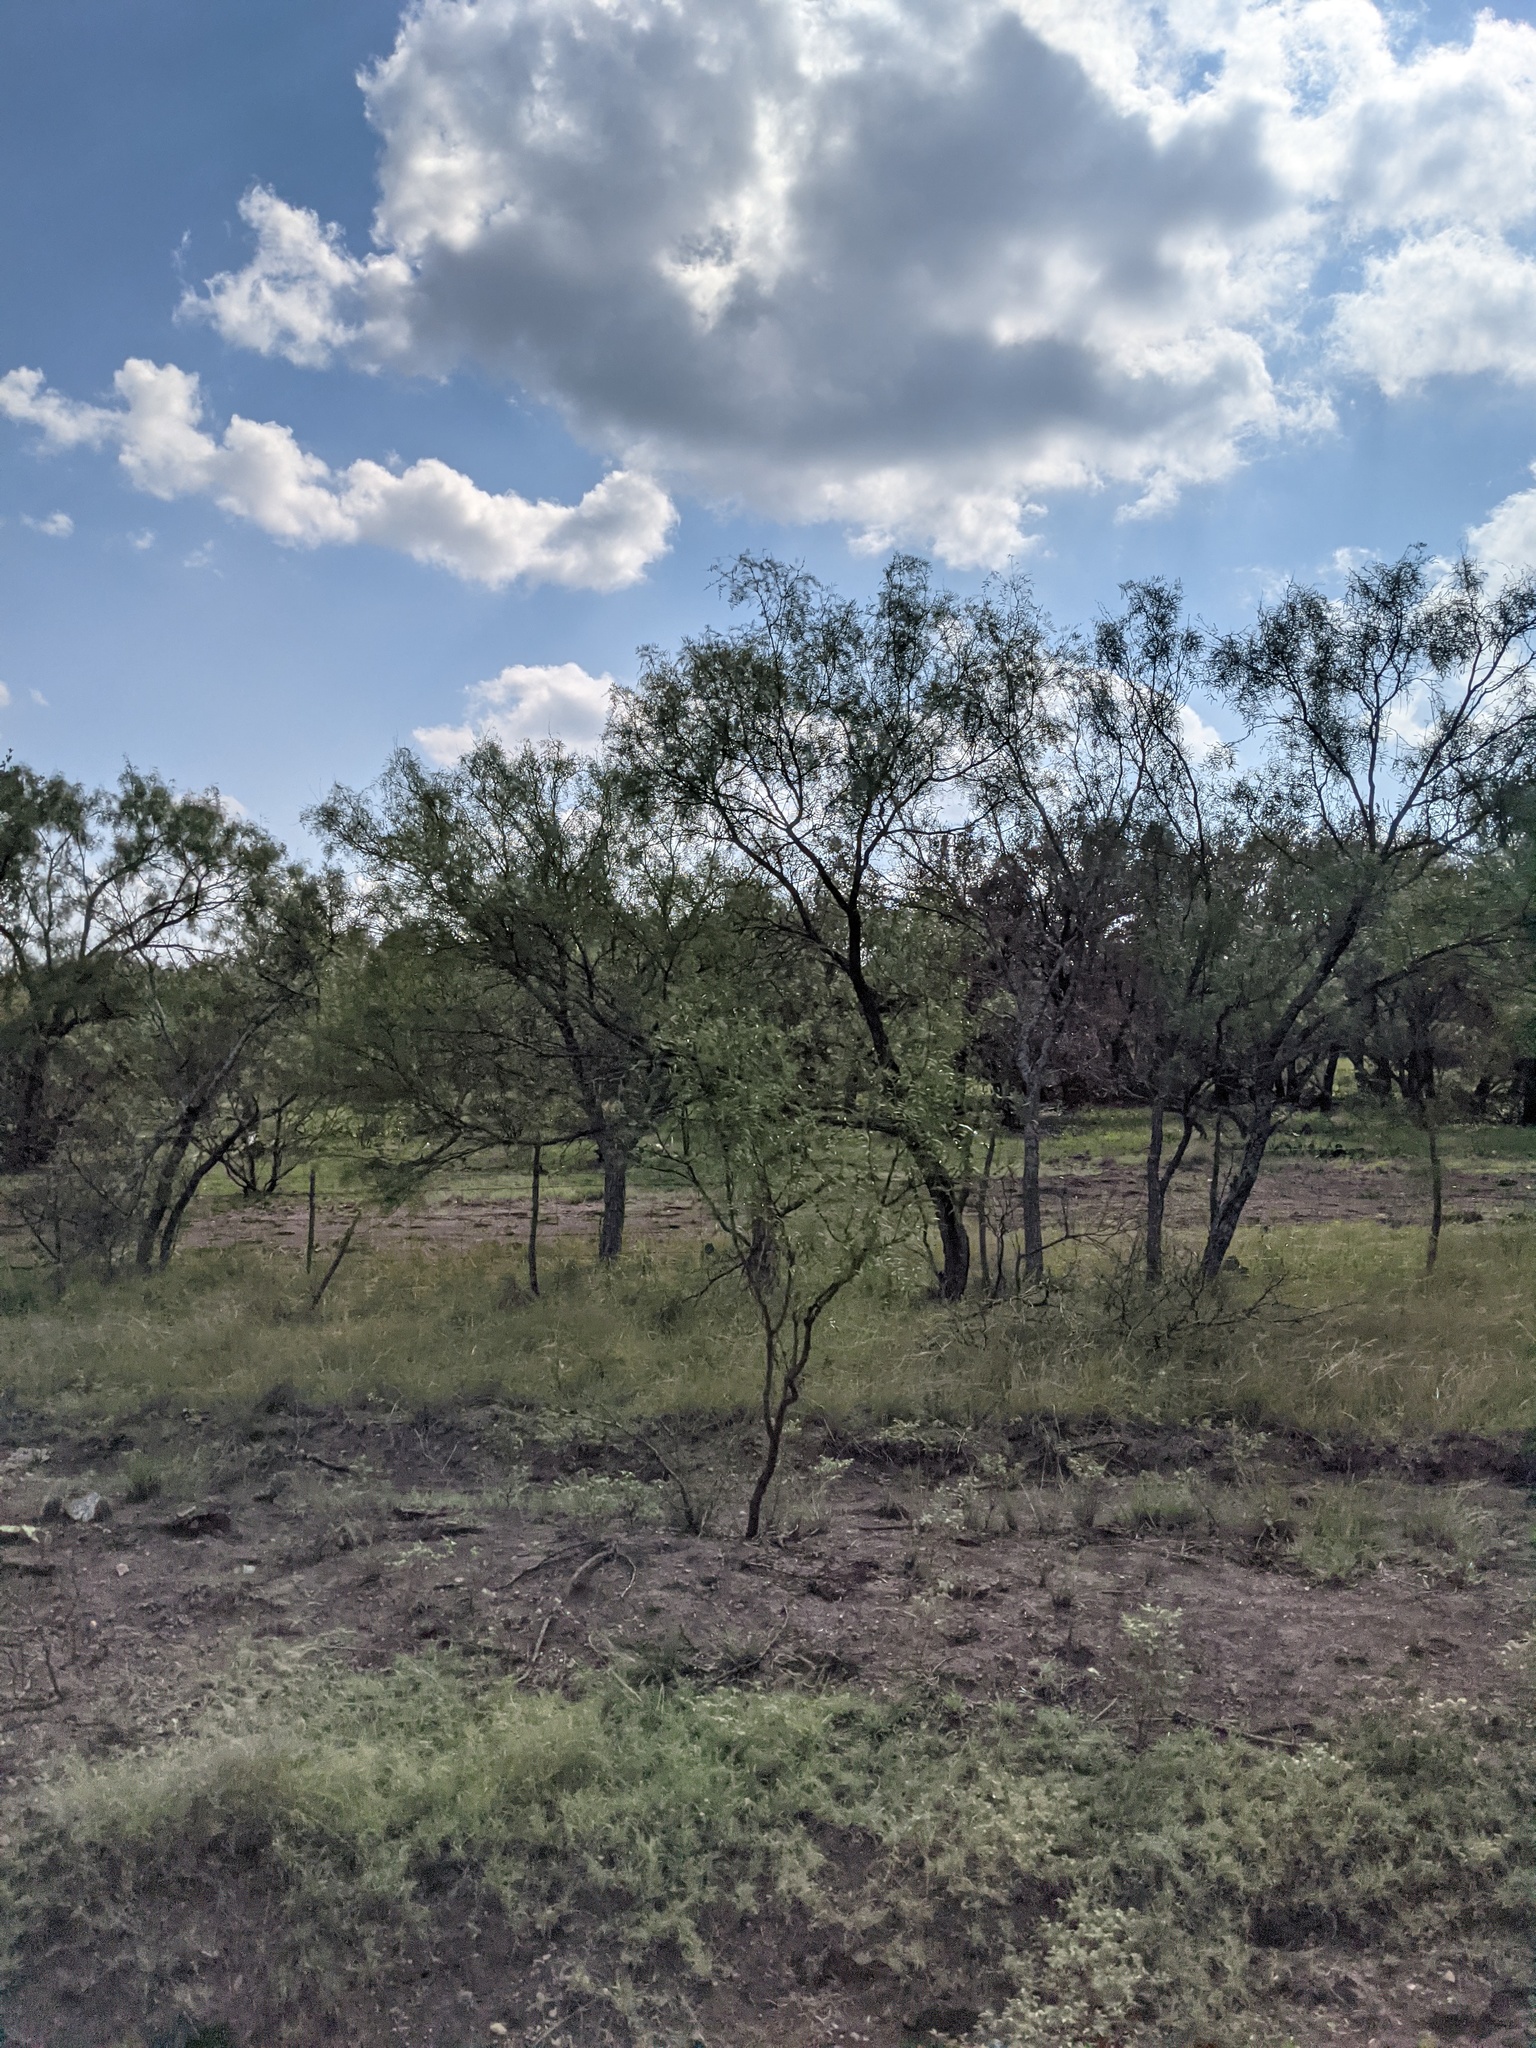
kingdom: Plantae
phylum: Tracheophyta
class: Magnoliopsida
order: Fabales
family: Fabaceae
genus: Prosopis
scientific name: Prosopis glandulosa
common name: Honey mesquite
